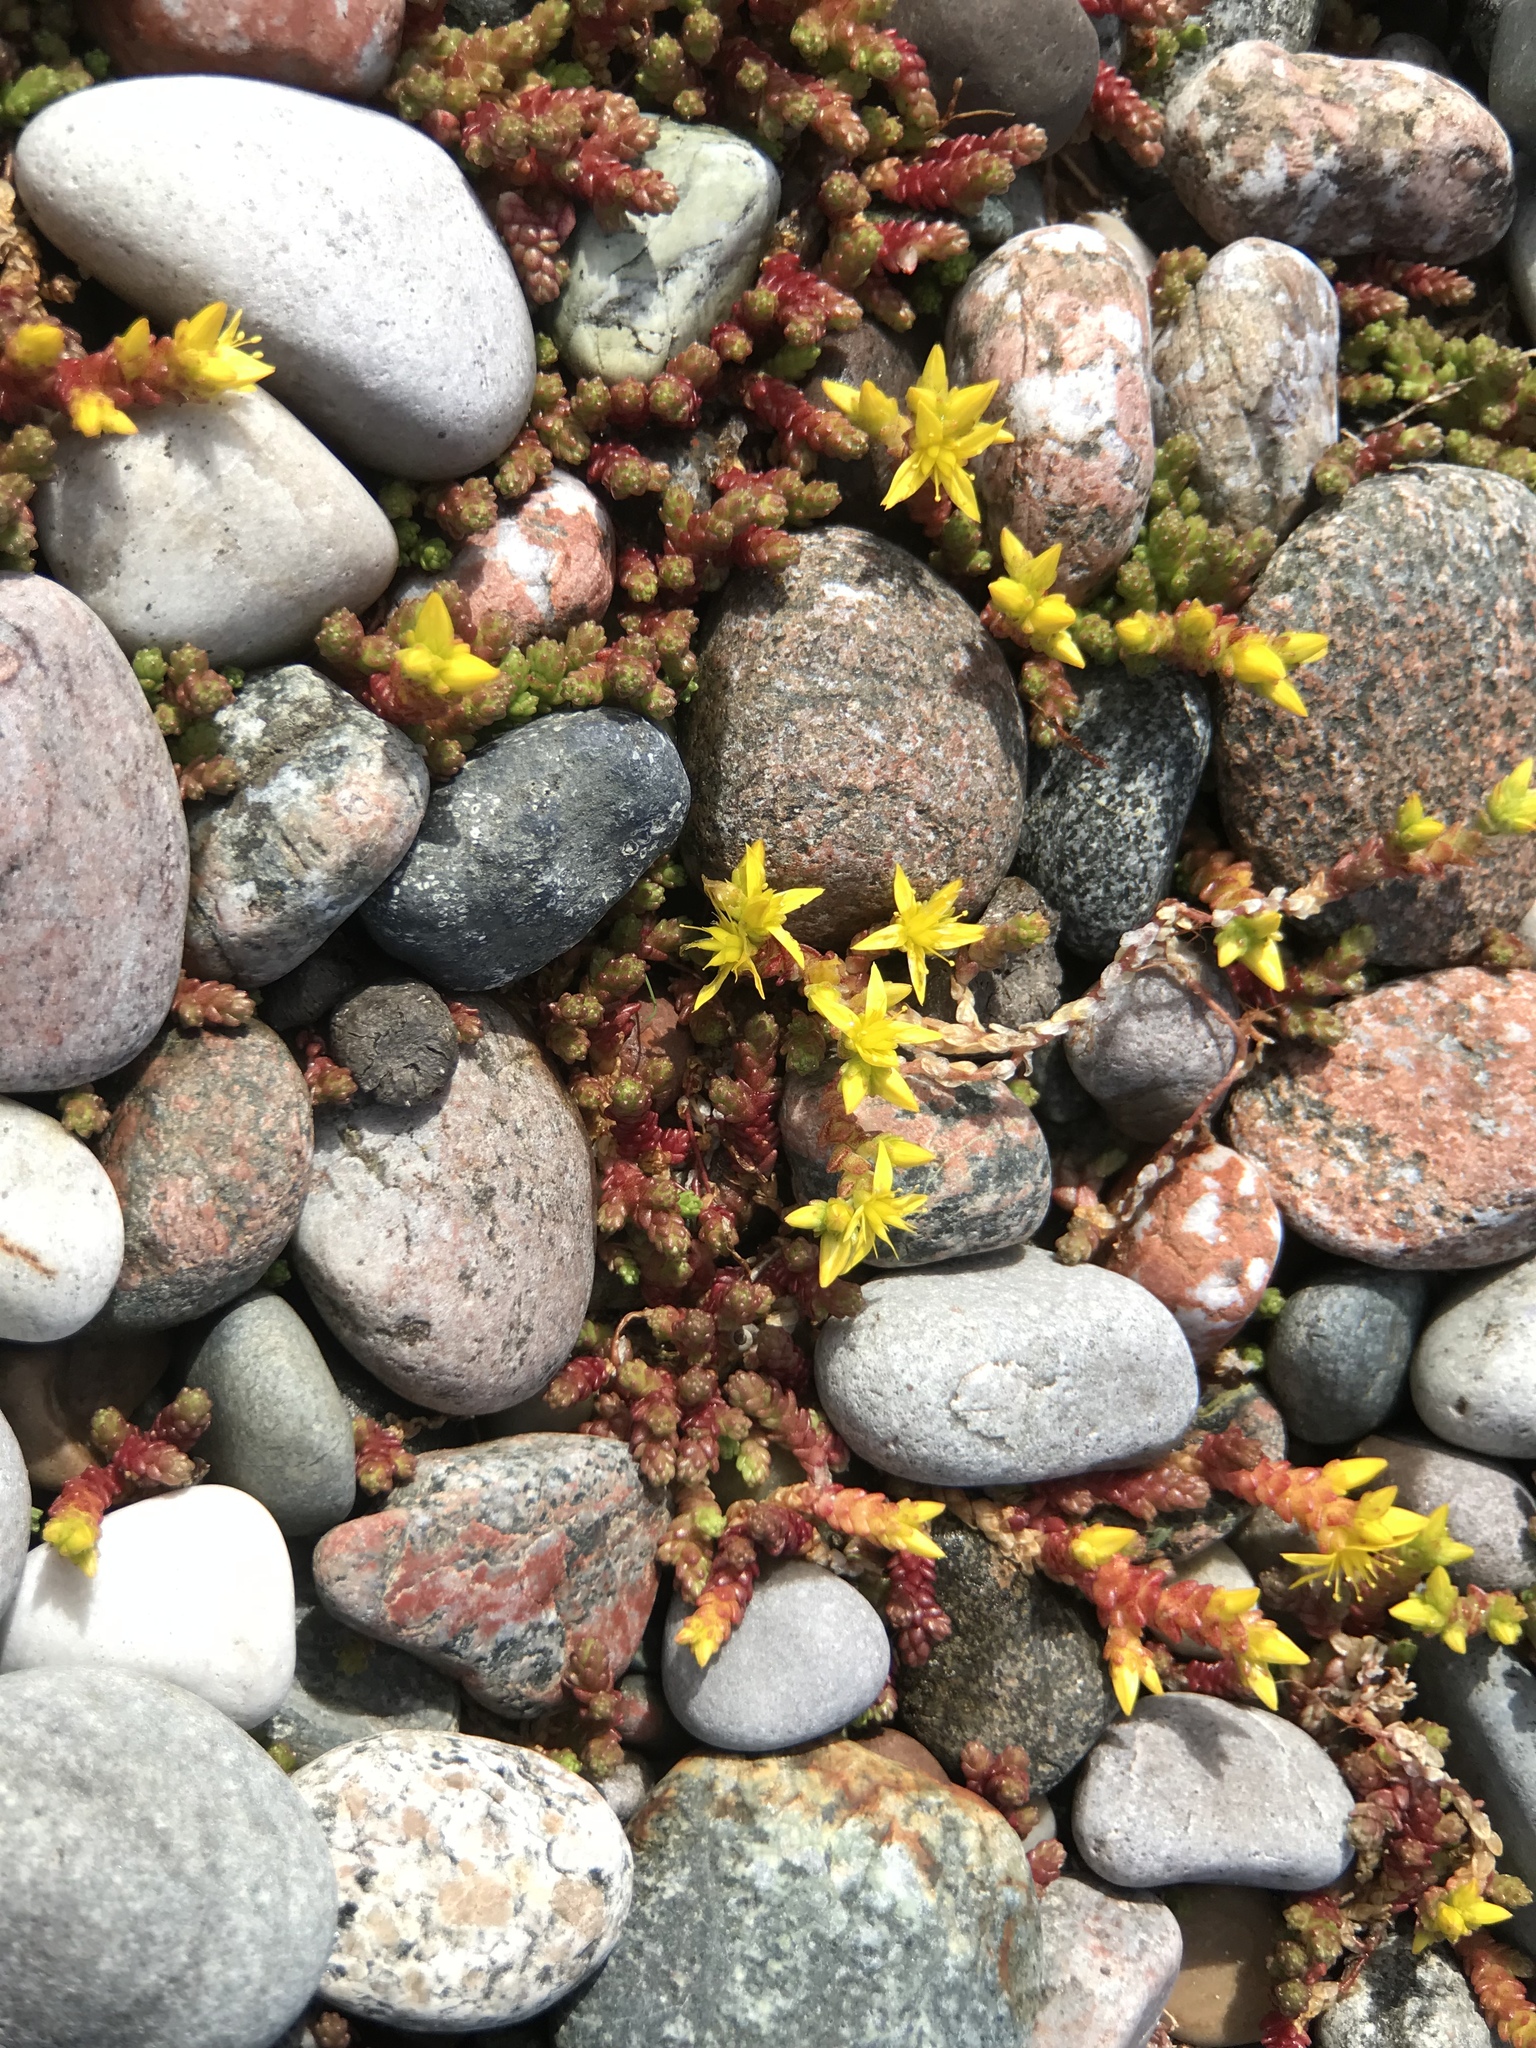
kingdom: Plantae
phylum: Tracheophyta
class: Magnoliopsida
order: Saxifragales
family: Crassulaceae
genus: Sedum
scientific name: Sedum acre
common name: Biting stonecrop
